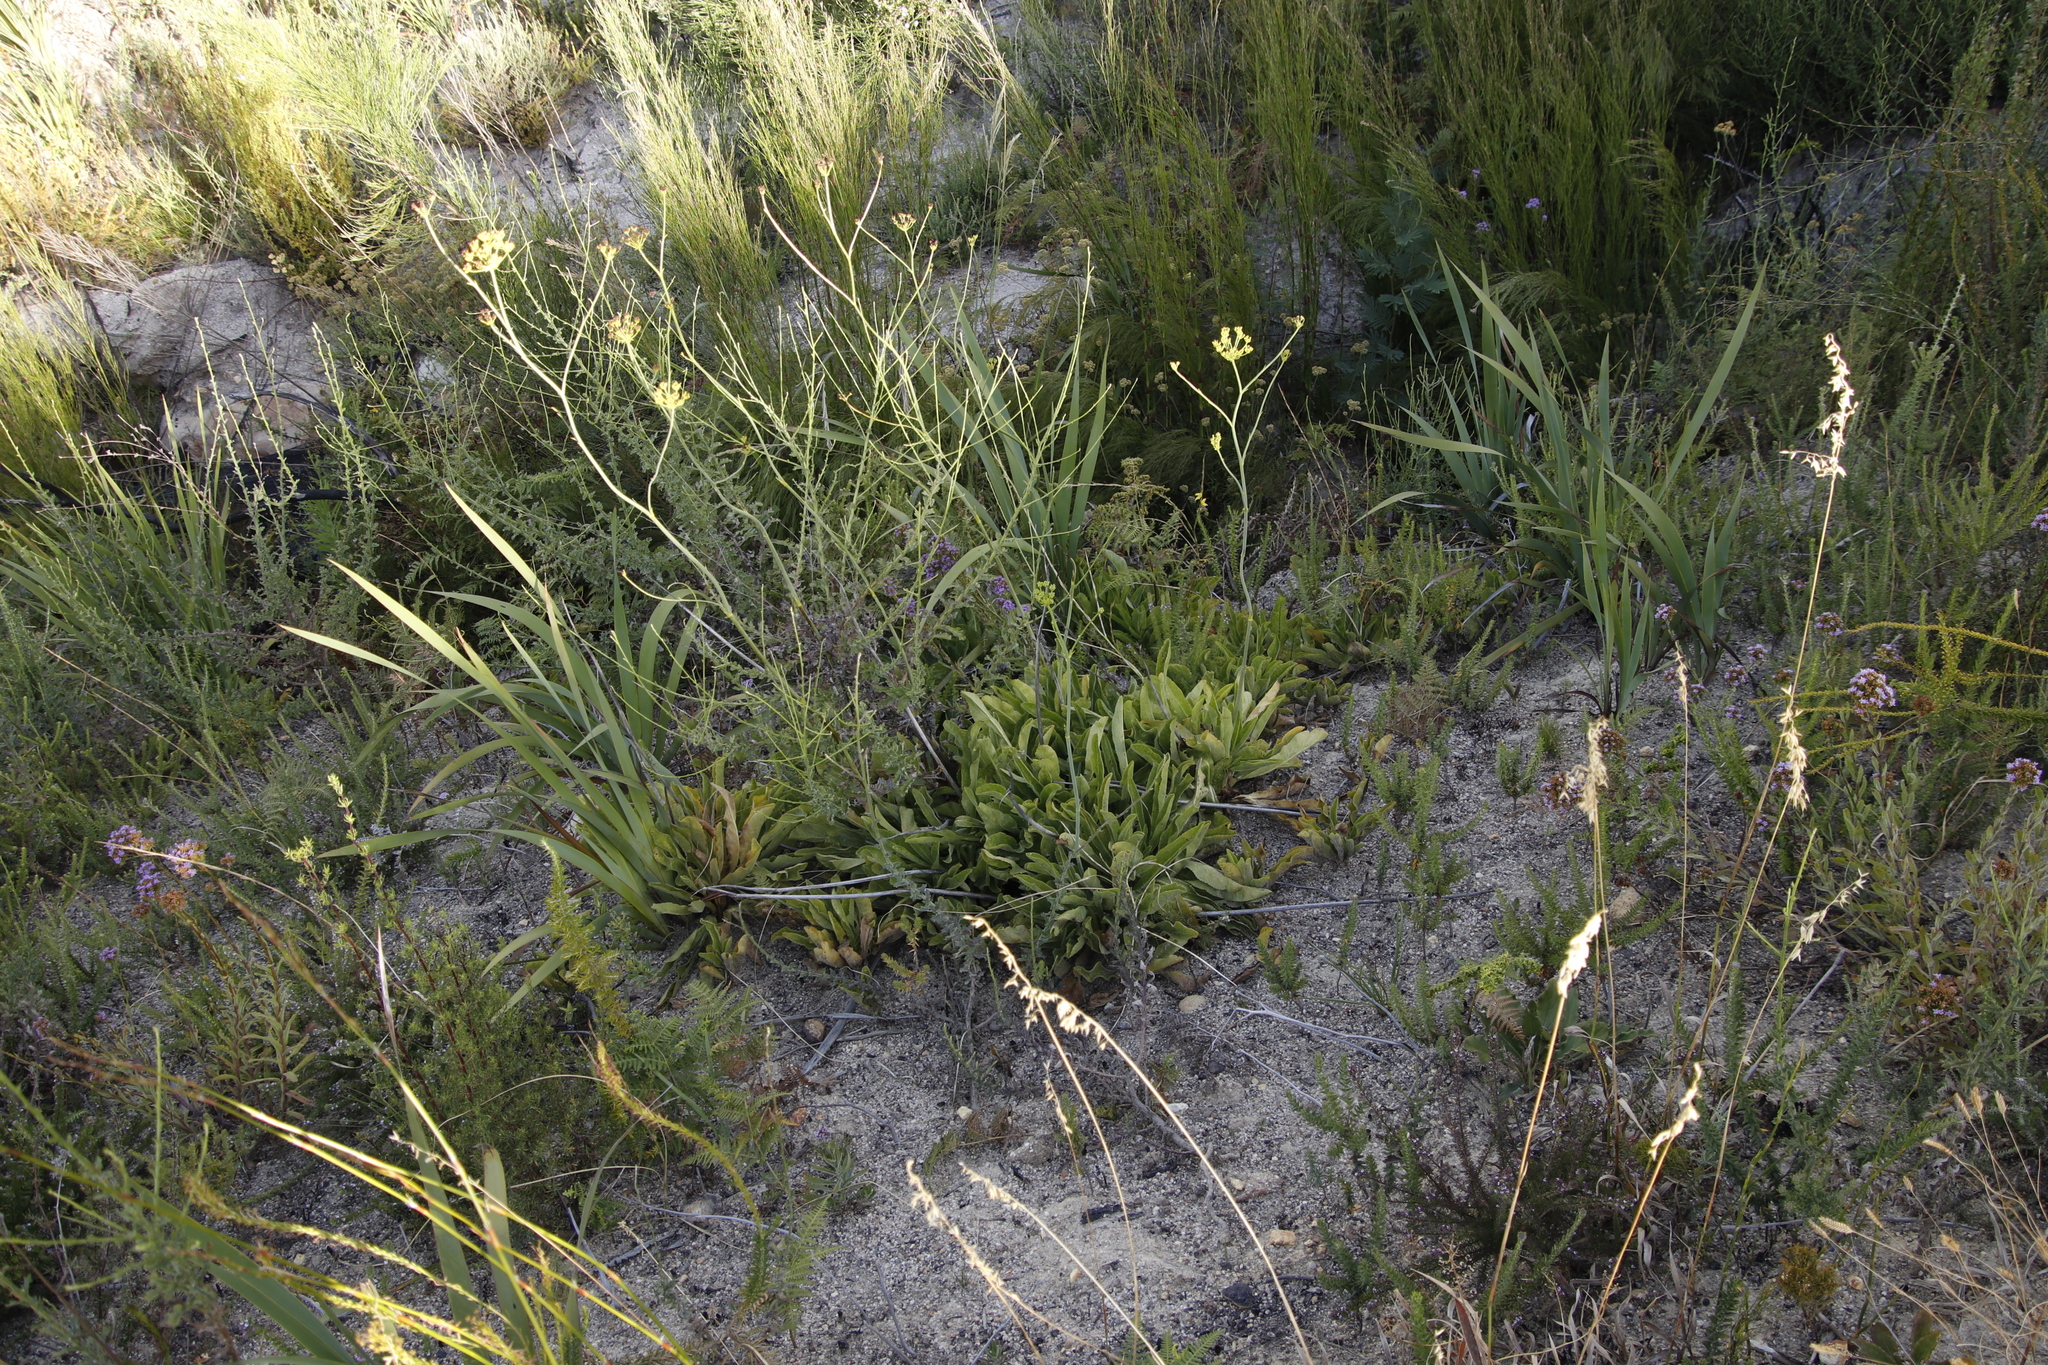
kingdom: Plantae
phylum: Tracheophyta
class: Magnoliopsida
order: Apiales
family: Apiaceae
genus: Lichtensteinia
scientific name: Lichtensteinia trifida
